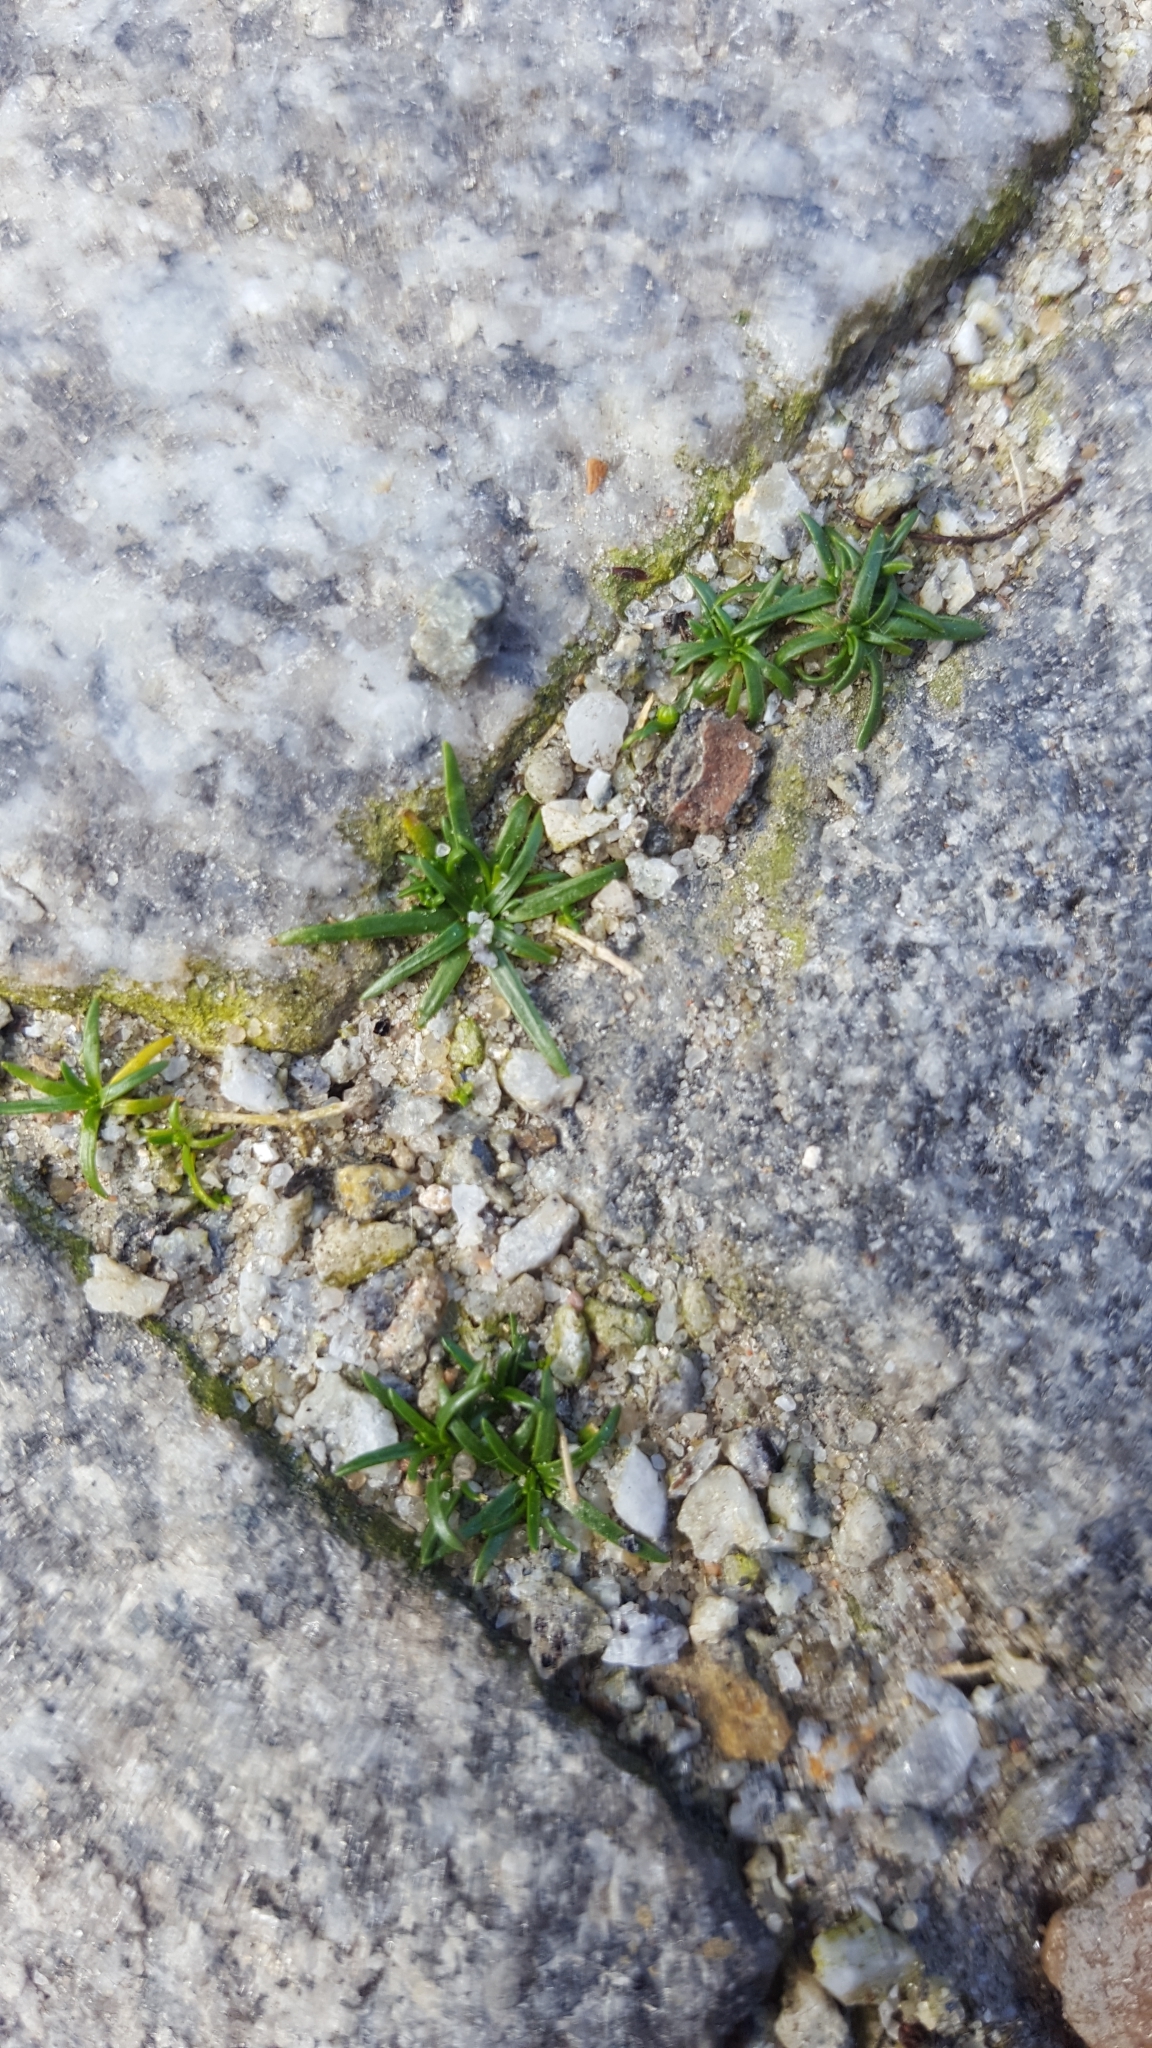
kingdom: Plantae
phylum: Tracheophyta
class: Magnoliopsida
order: Caryophyllales
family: Caryophyllaceae
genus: Sagina
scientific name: Sagina procumbens
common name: Procumbent pearlwort
